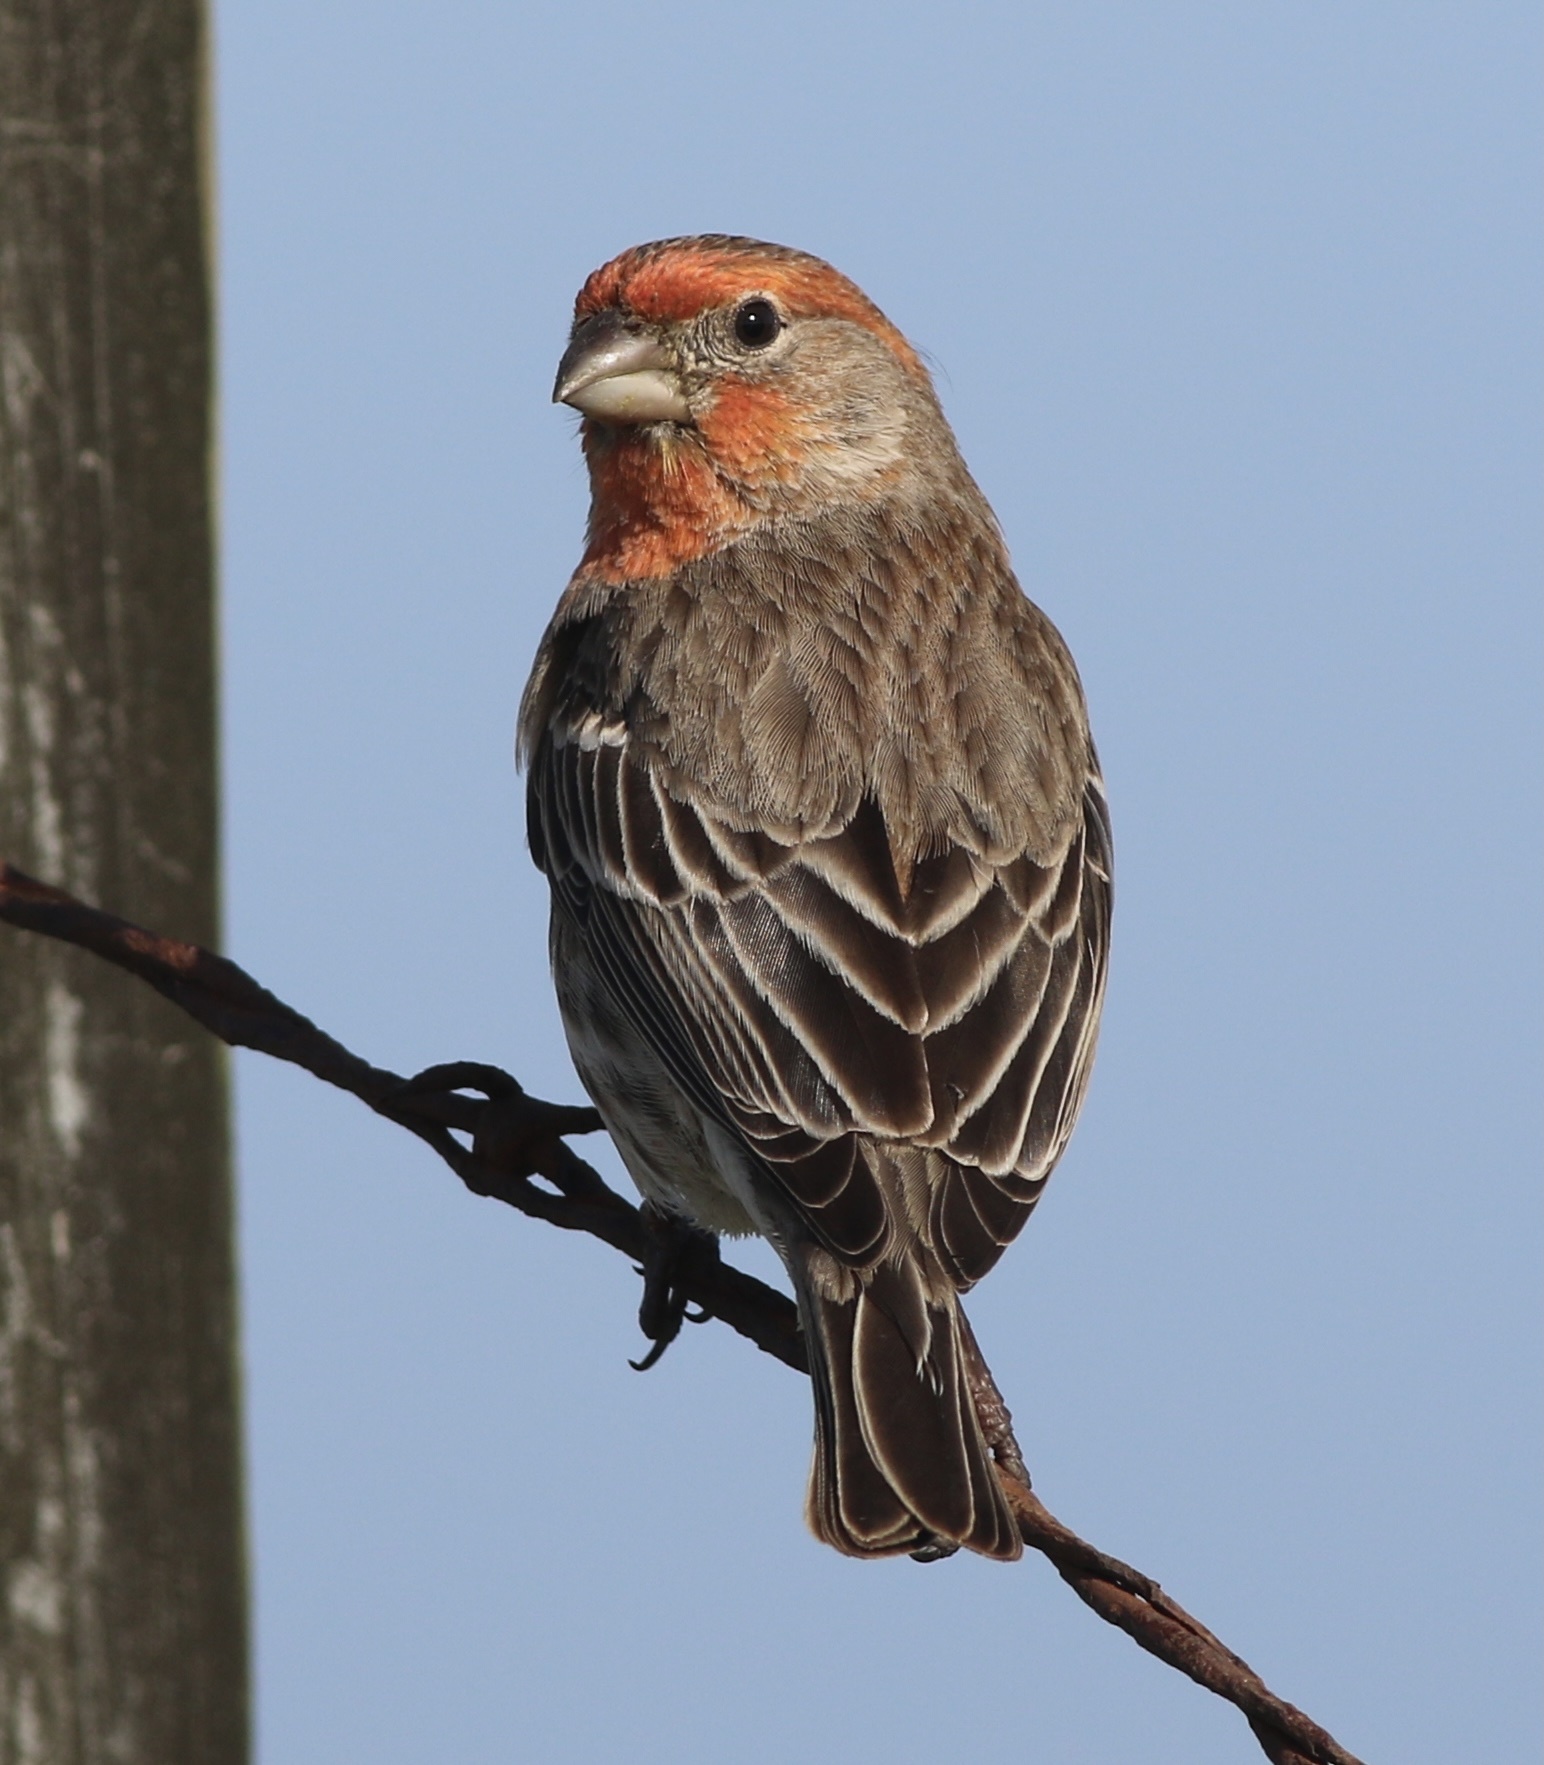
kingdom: Animalia
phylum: Chordata
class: Aves
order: Passeriformes
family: Fringillidae
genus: Haemorhous
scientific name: Haemorhous mexicanus
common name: House finch
